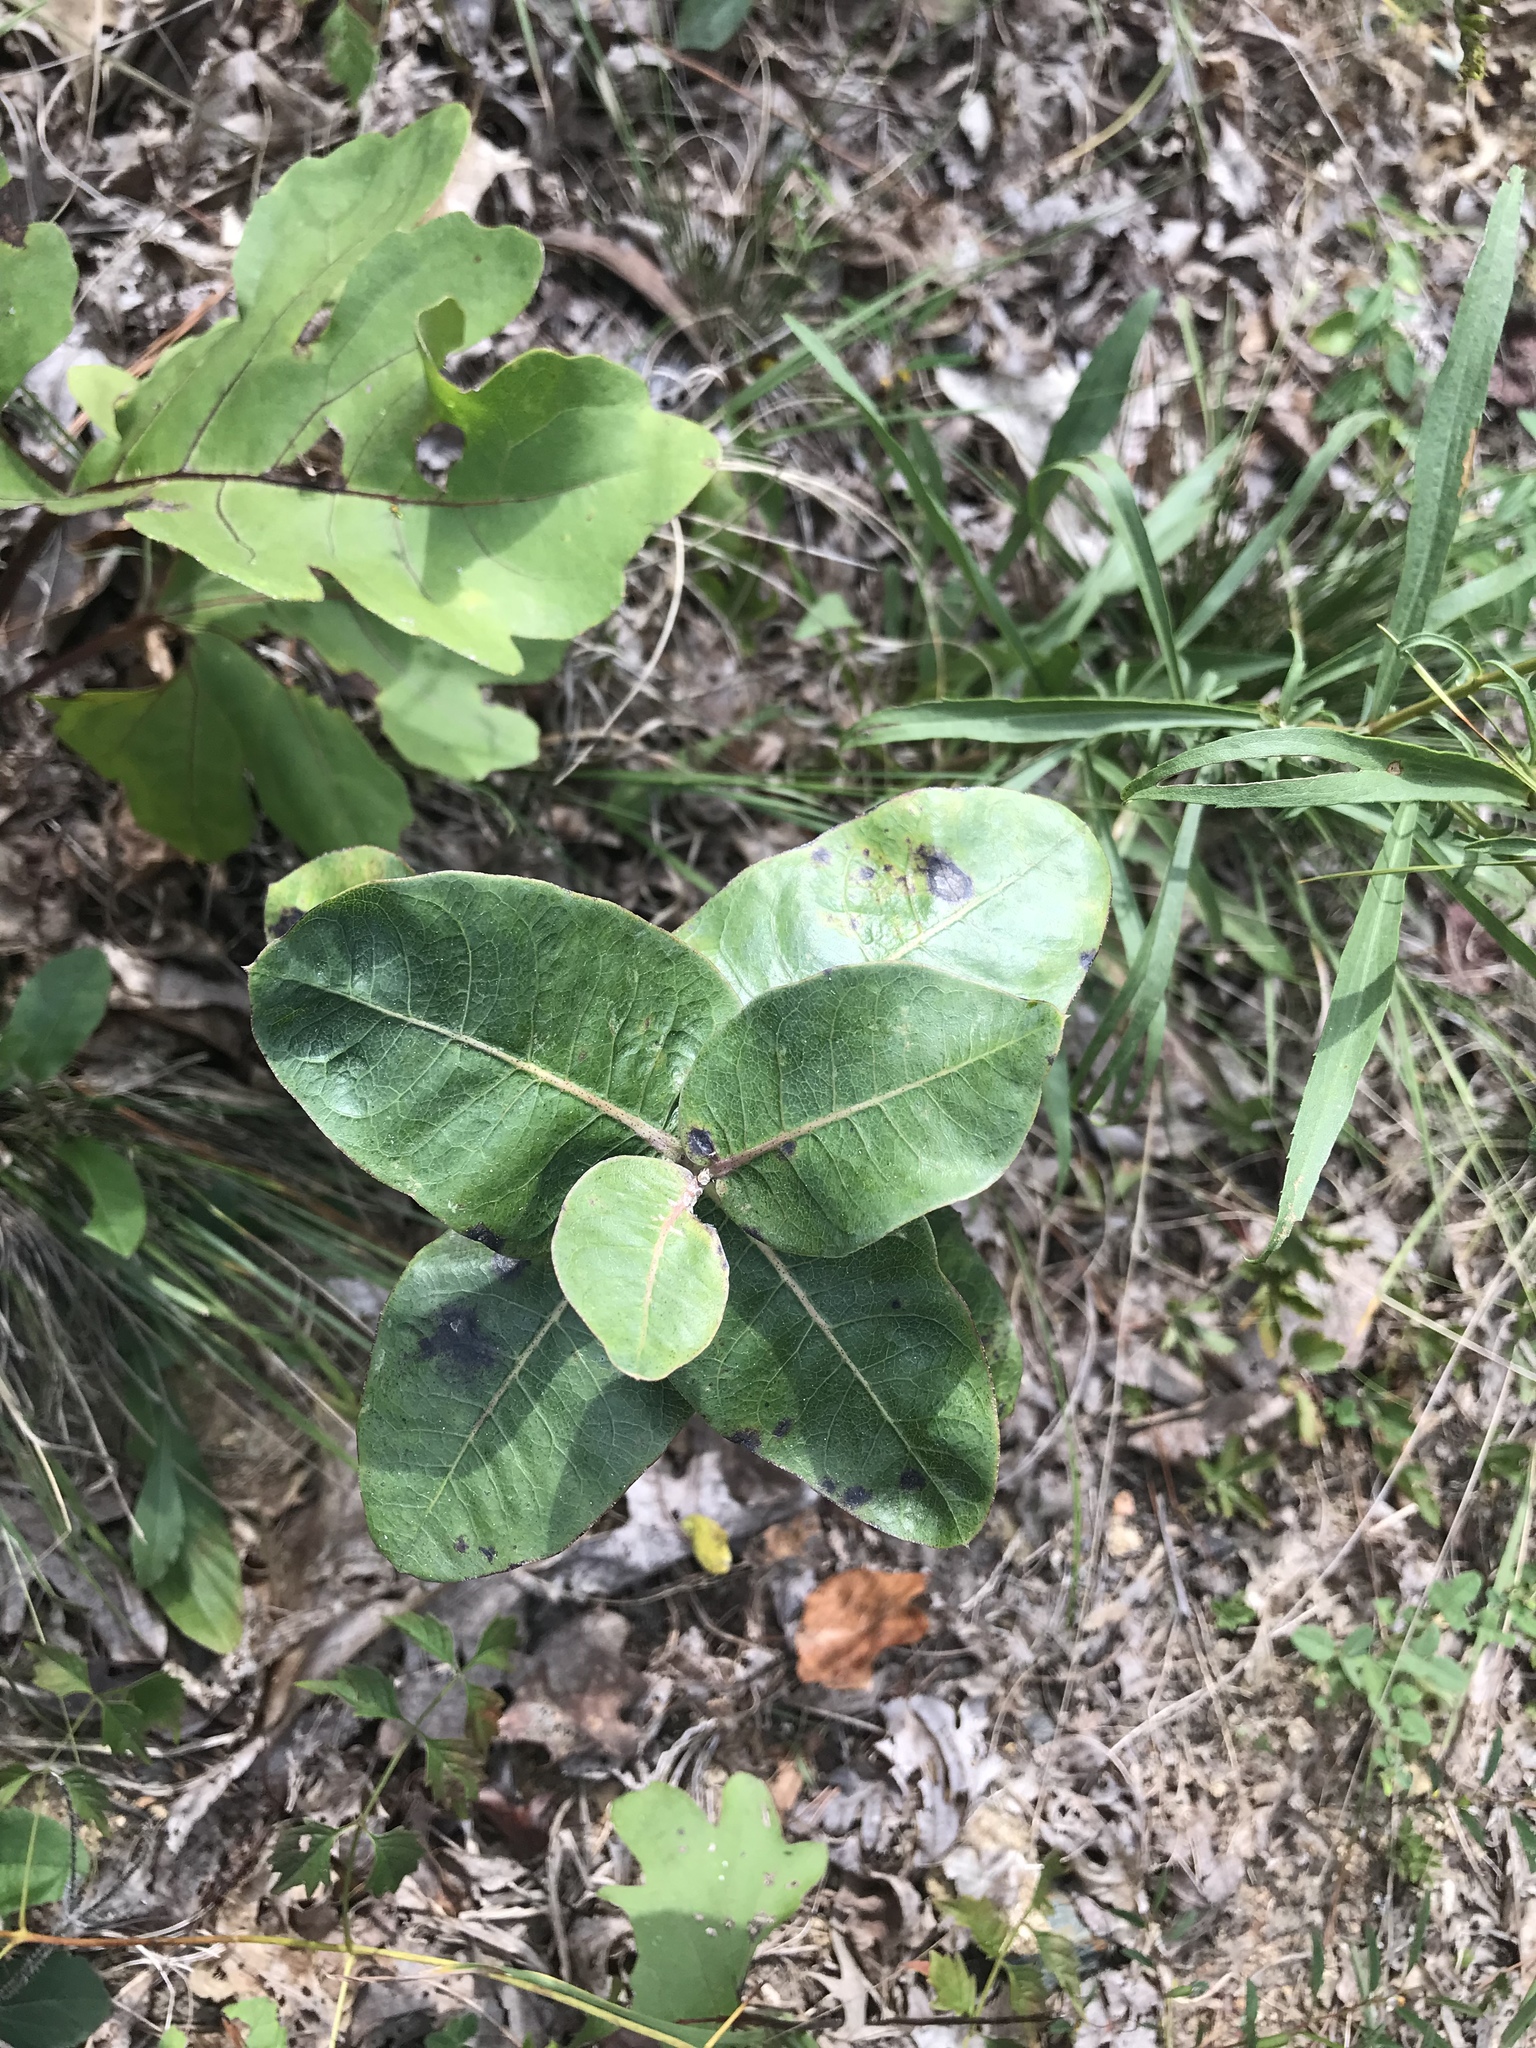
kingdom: Plantae
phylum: Tracheophyta
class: Magnoliopsida
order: Gentianales
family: Apocynaceae
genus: Asclepias
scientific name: Asclepias amplexicaulis
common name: Blunt-leaf milkweed
